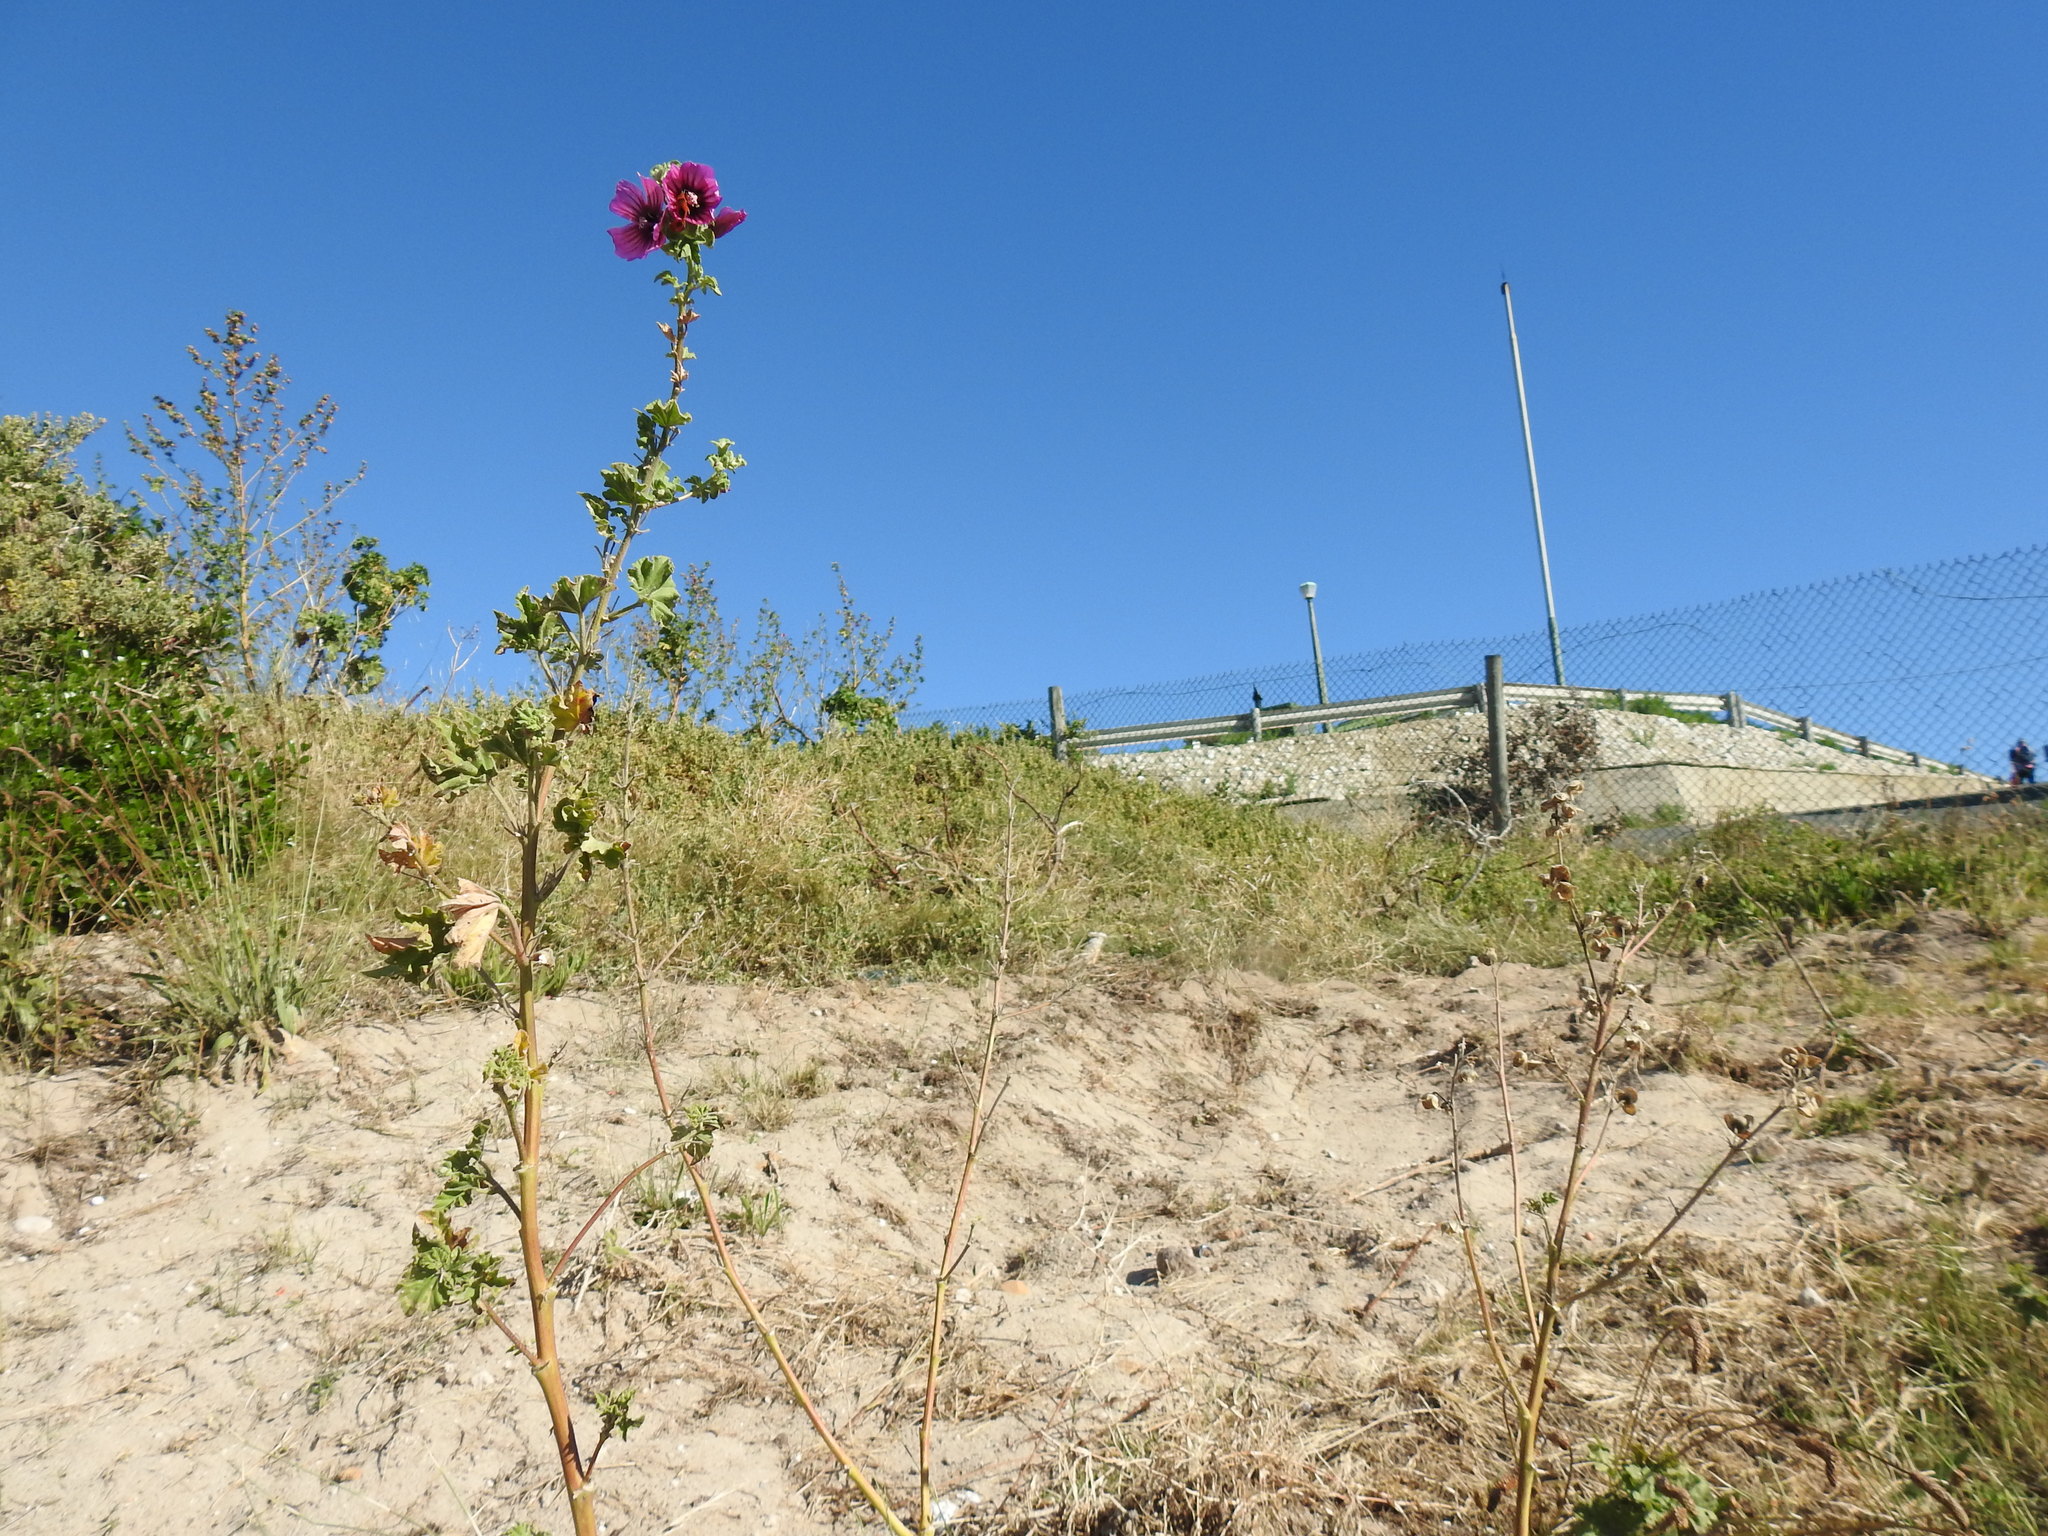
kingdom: Plantae
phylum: Tracheophyta
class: Magnoliopsida
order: Malvales
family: Malvaceae
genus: Malva
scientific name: Malva arborea
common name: Tree mallow
